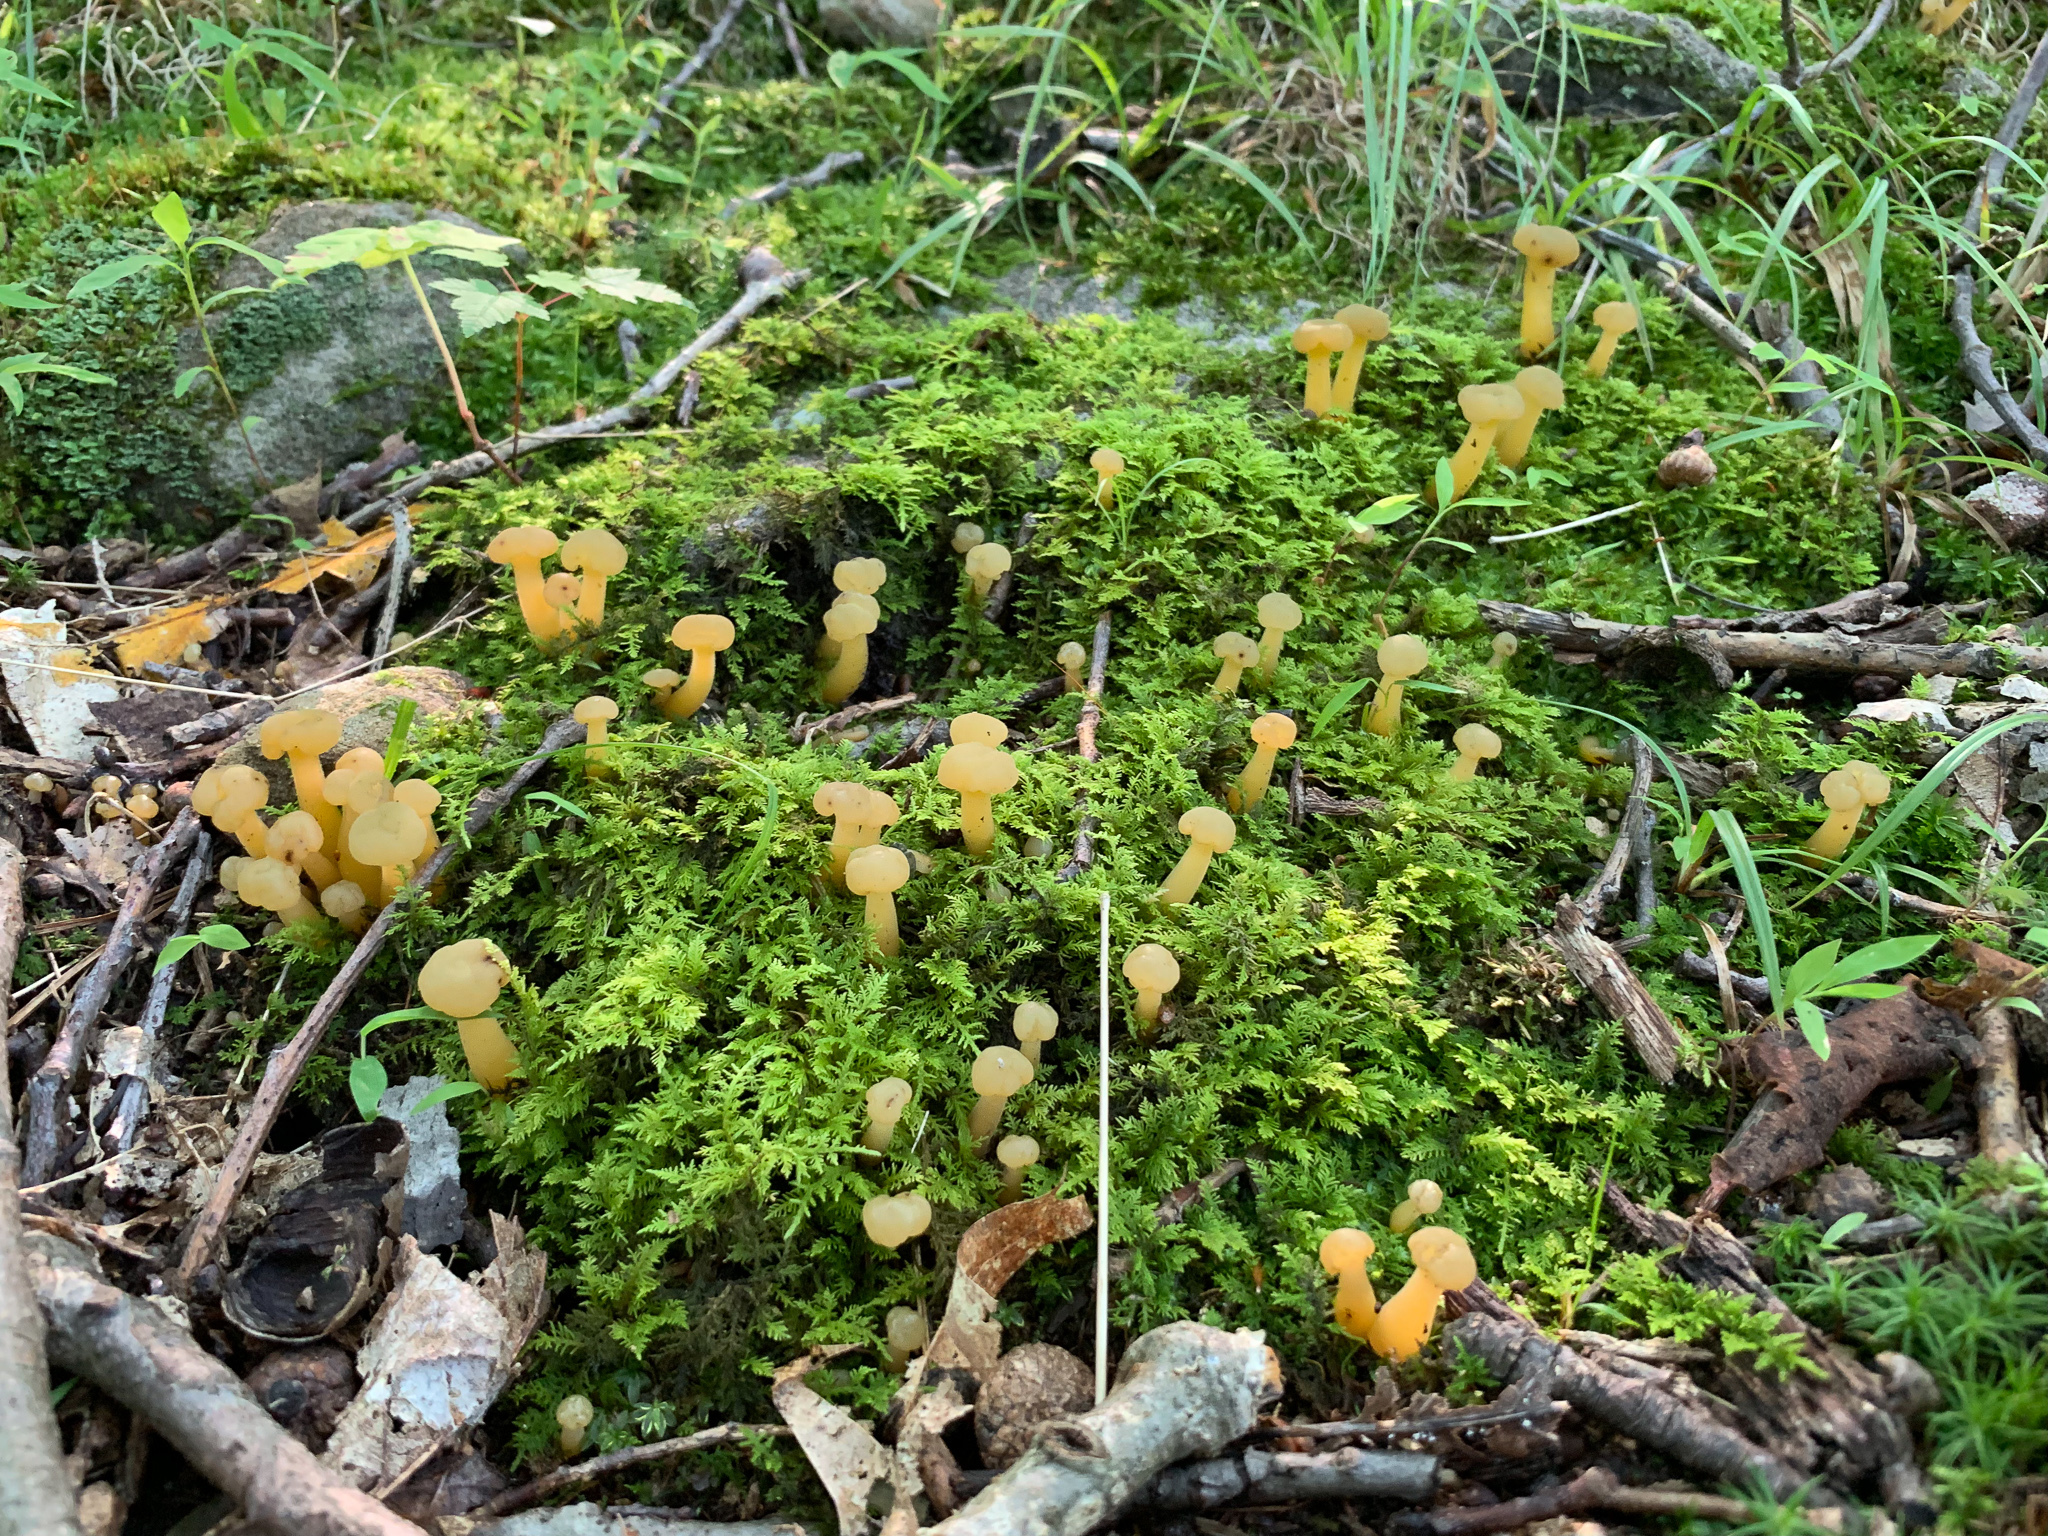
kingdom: Fungi
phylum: Ascomycota
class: Leotiomycetes
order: Leotiales
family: Leotiaceae
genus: Leotia
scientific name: Leotia lubrica
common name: Jellybaby
